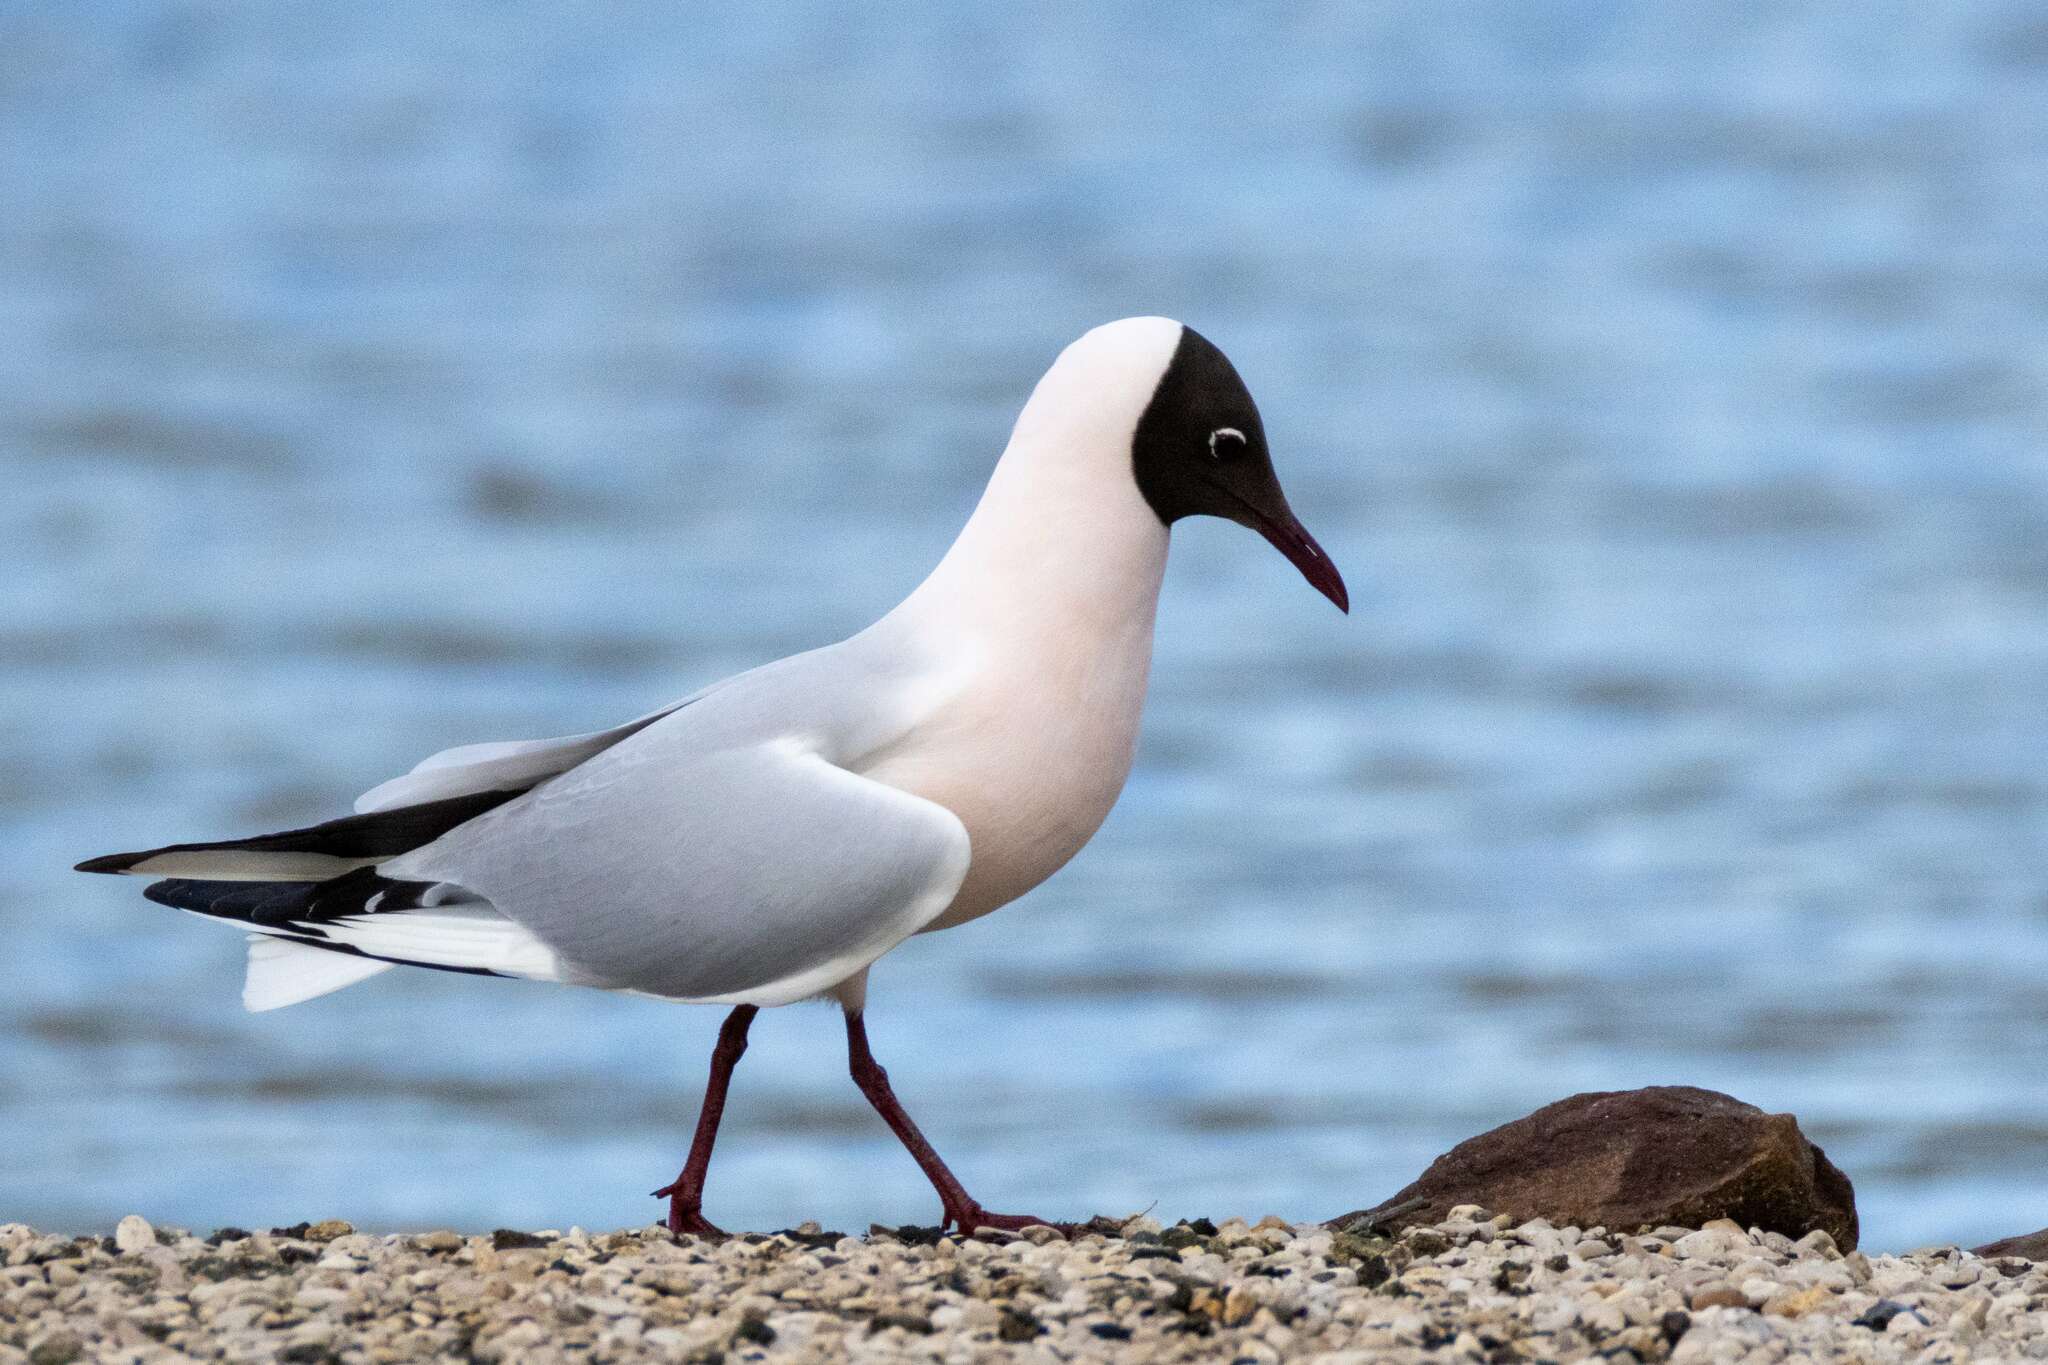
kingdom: Animalia
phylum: Chordata
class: Aves
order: Charadriiformes
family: Laridae
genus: Chroicocephalus
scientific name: Chroicocephalus ridibundus
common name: Black-headed gull
